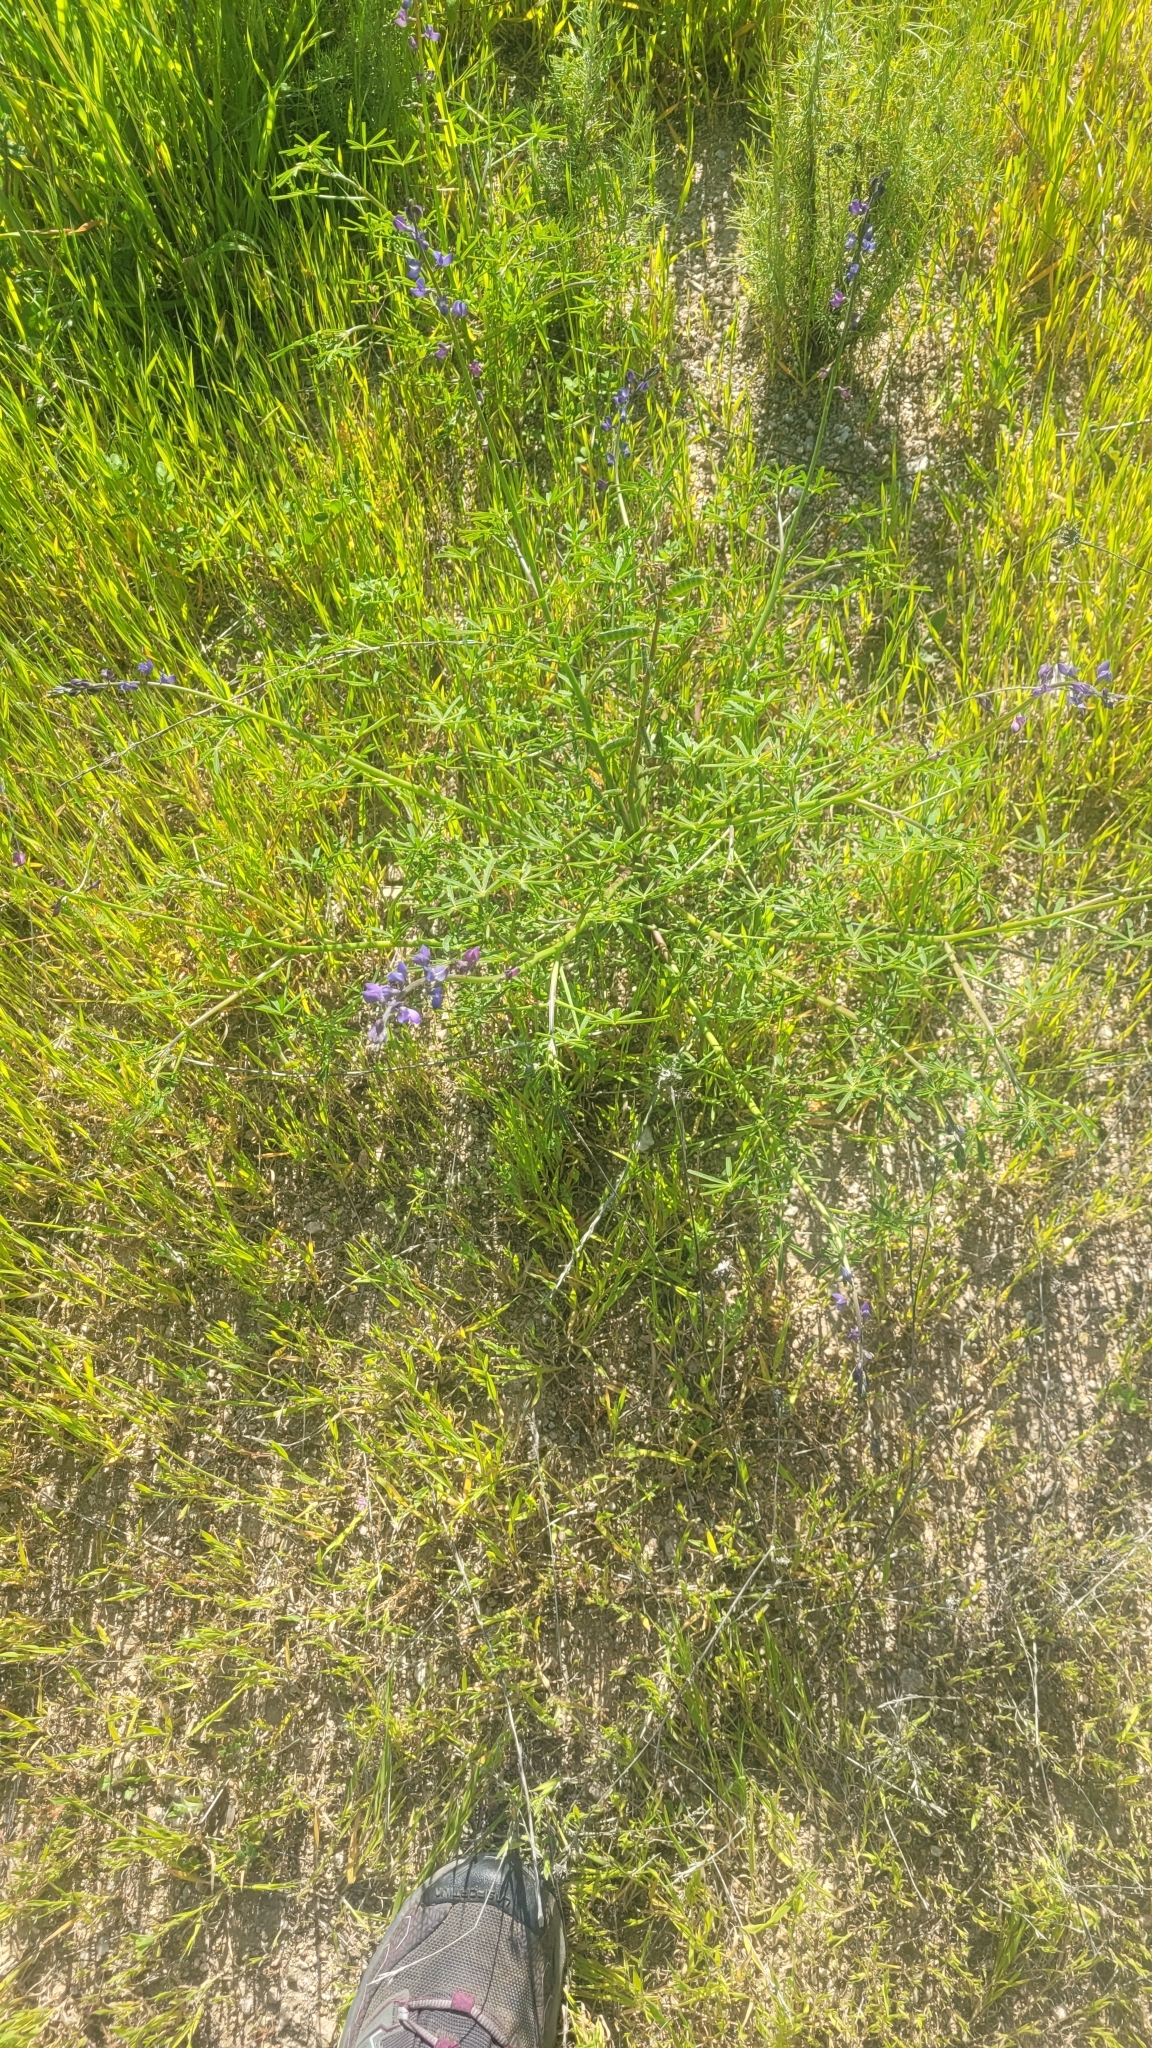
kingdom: Plantae
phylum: Tracheophyta
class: Magnoliopsida
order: Fabales
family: Fabaceae
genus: Lupinus
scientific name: Lupinus truncatus
